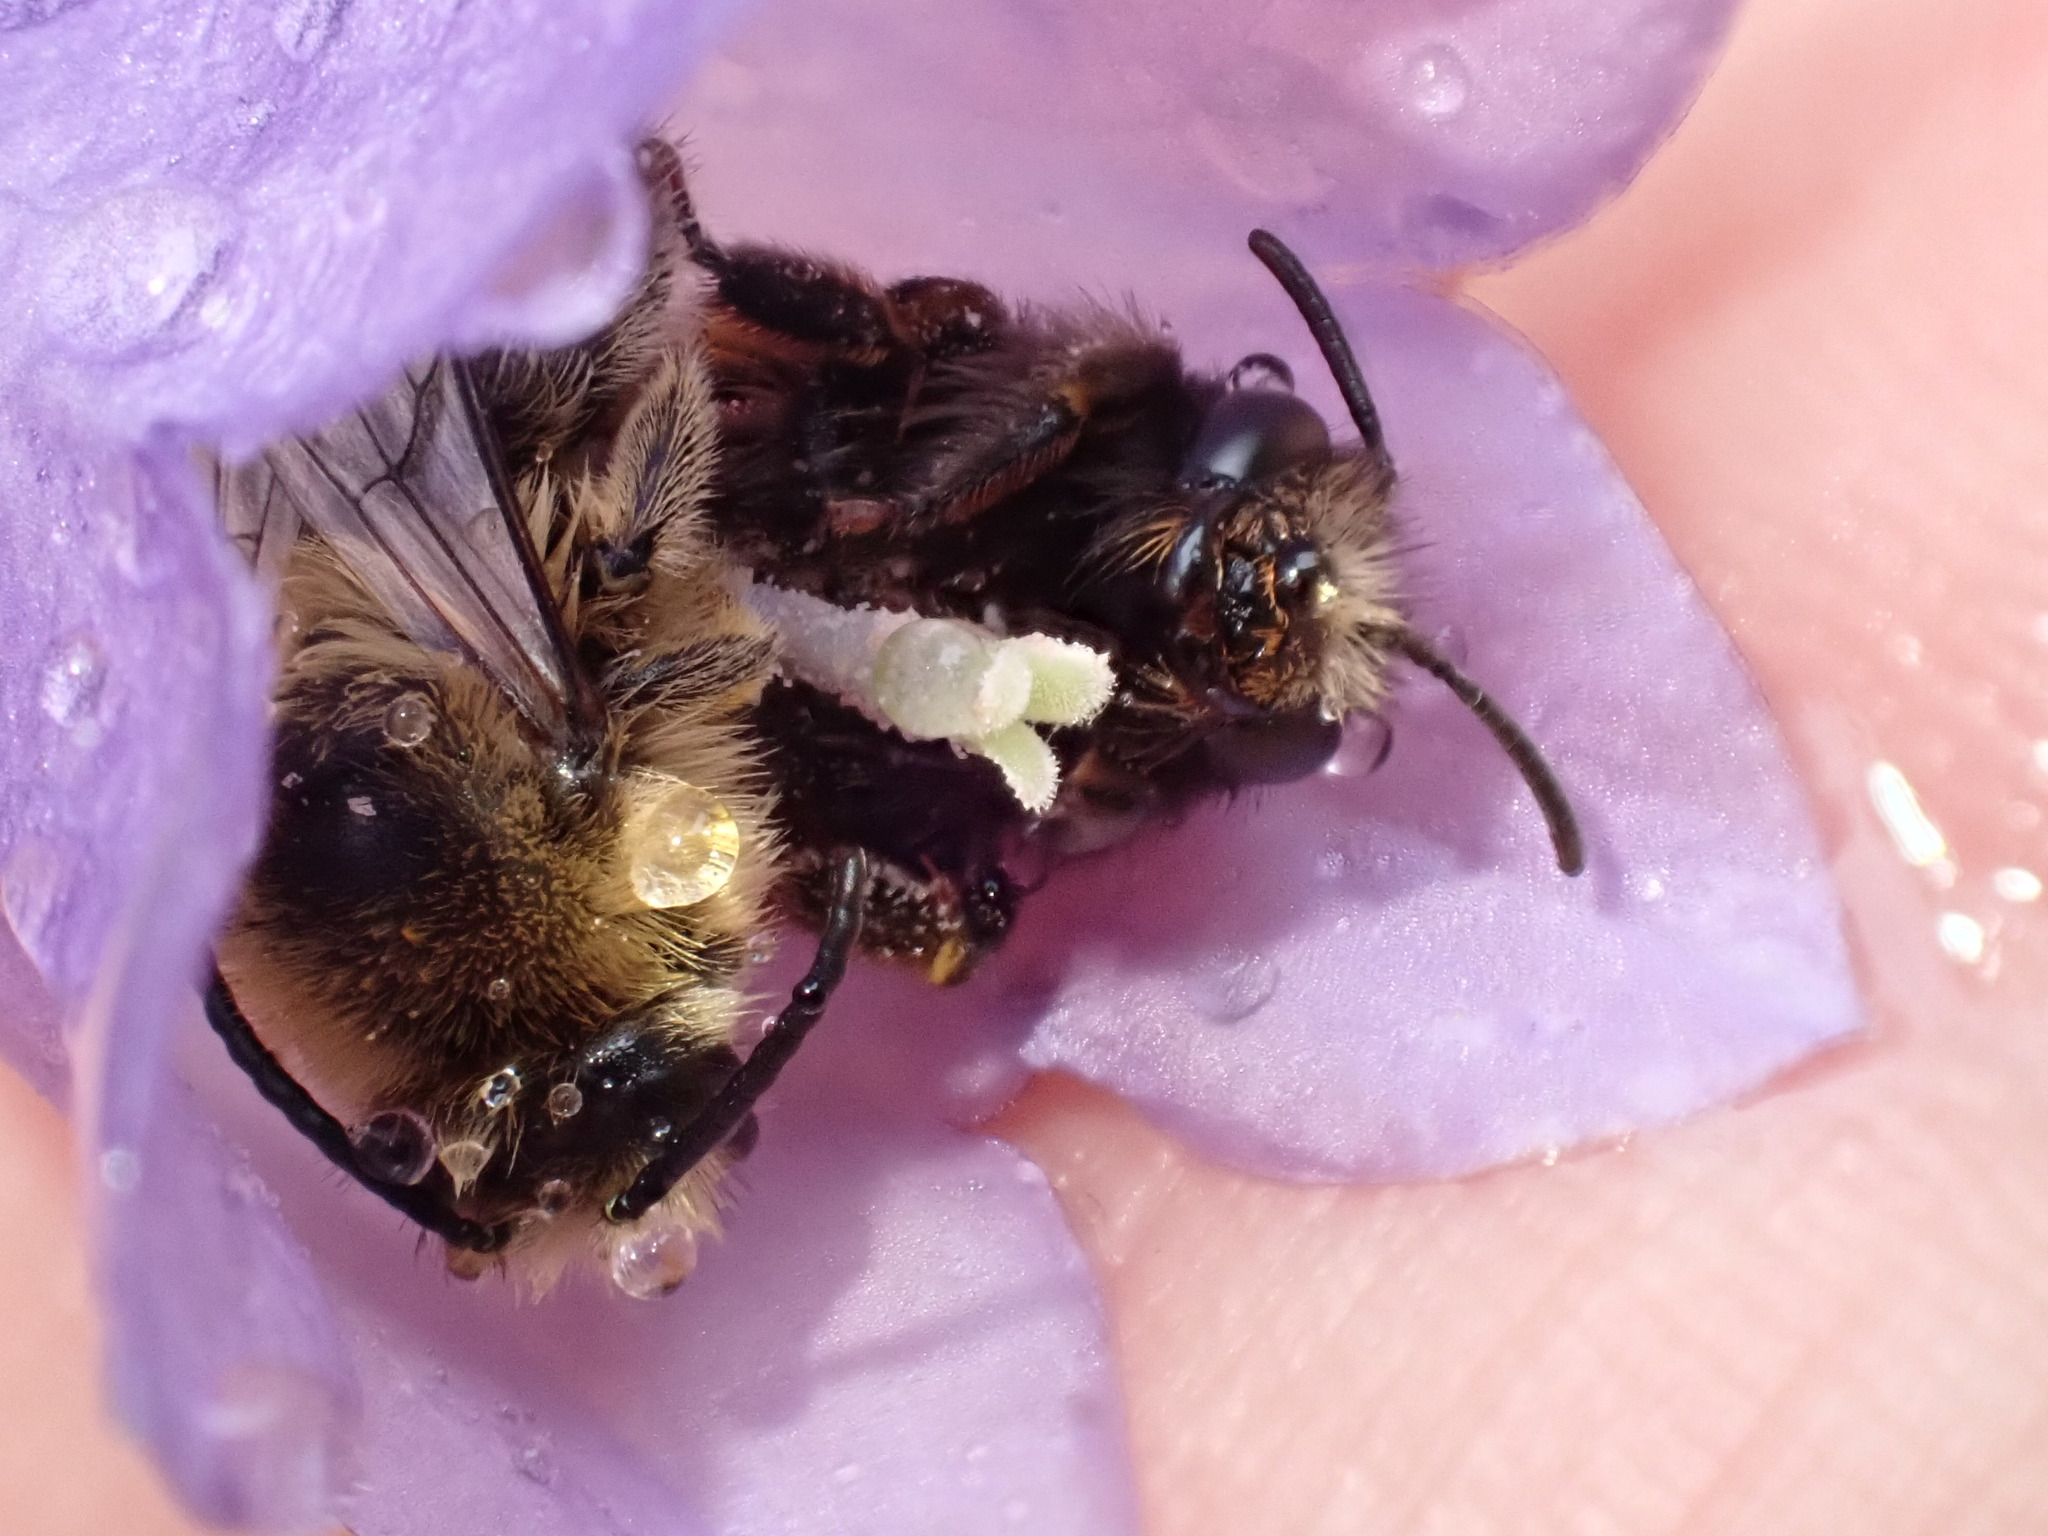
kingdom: Animalia
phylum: Arthropoda
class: Insecta
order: Hymenoptera
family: Melittidae
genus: Melitta
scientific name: Melitta haemorrhoidalis
